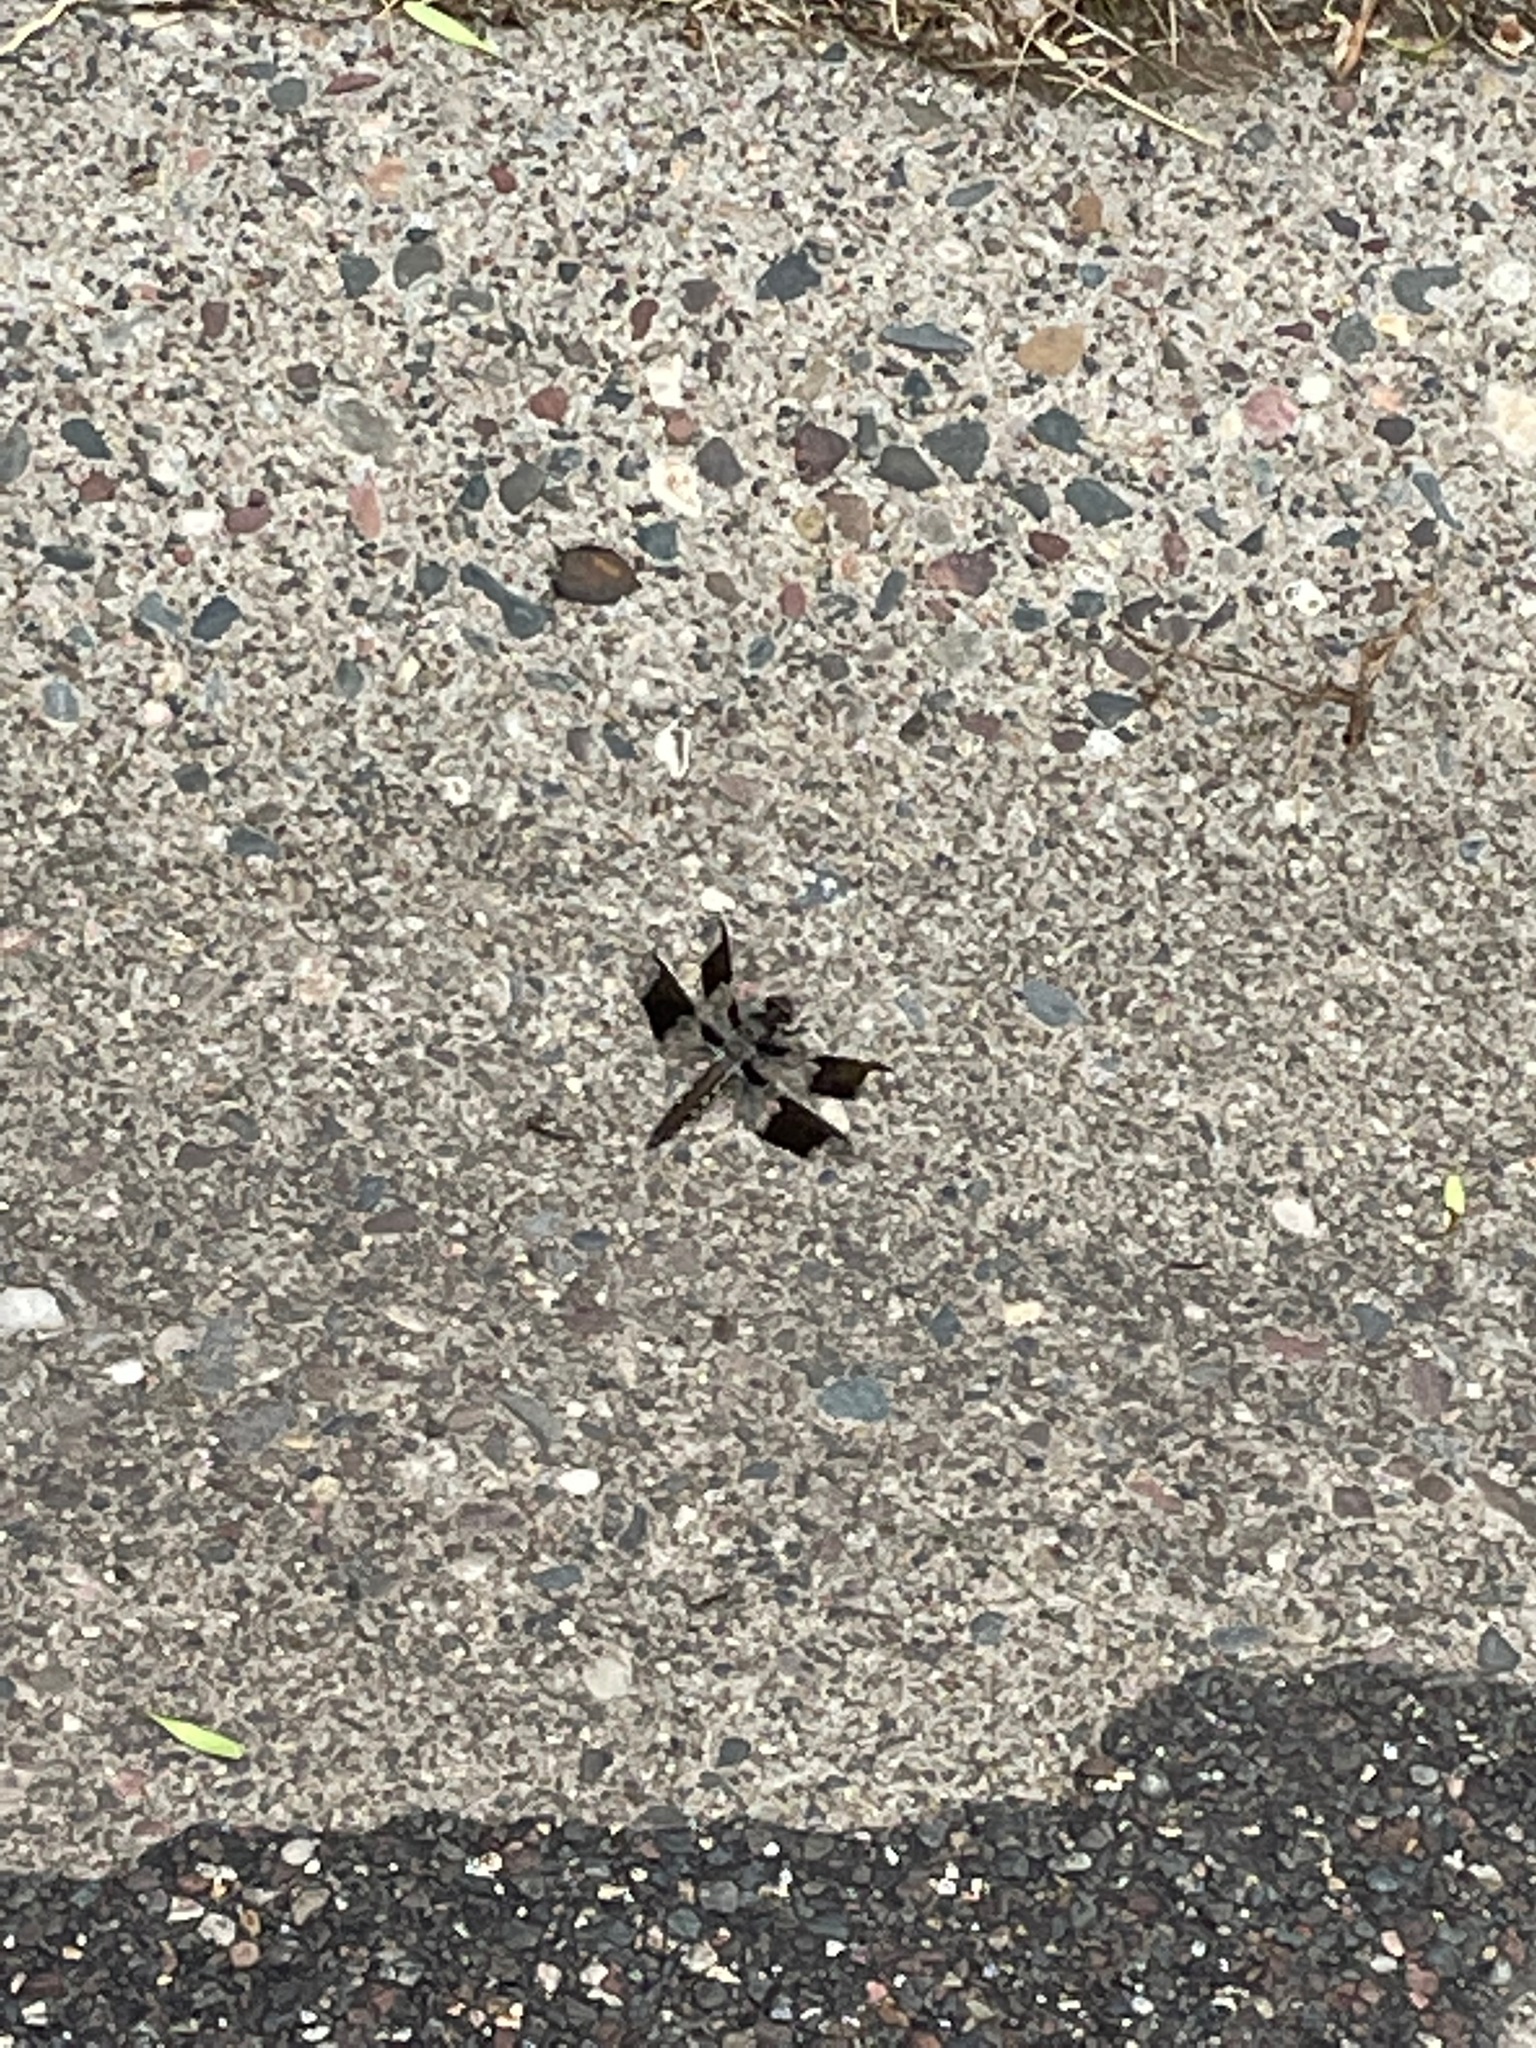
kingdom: Animalia
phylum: Arthropoda
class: Insecta
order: Odonata
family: Libellulidae
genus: Plathemis
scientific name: Plathemis lydia
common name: Common whitetail
